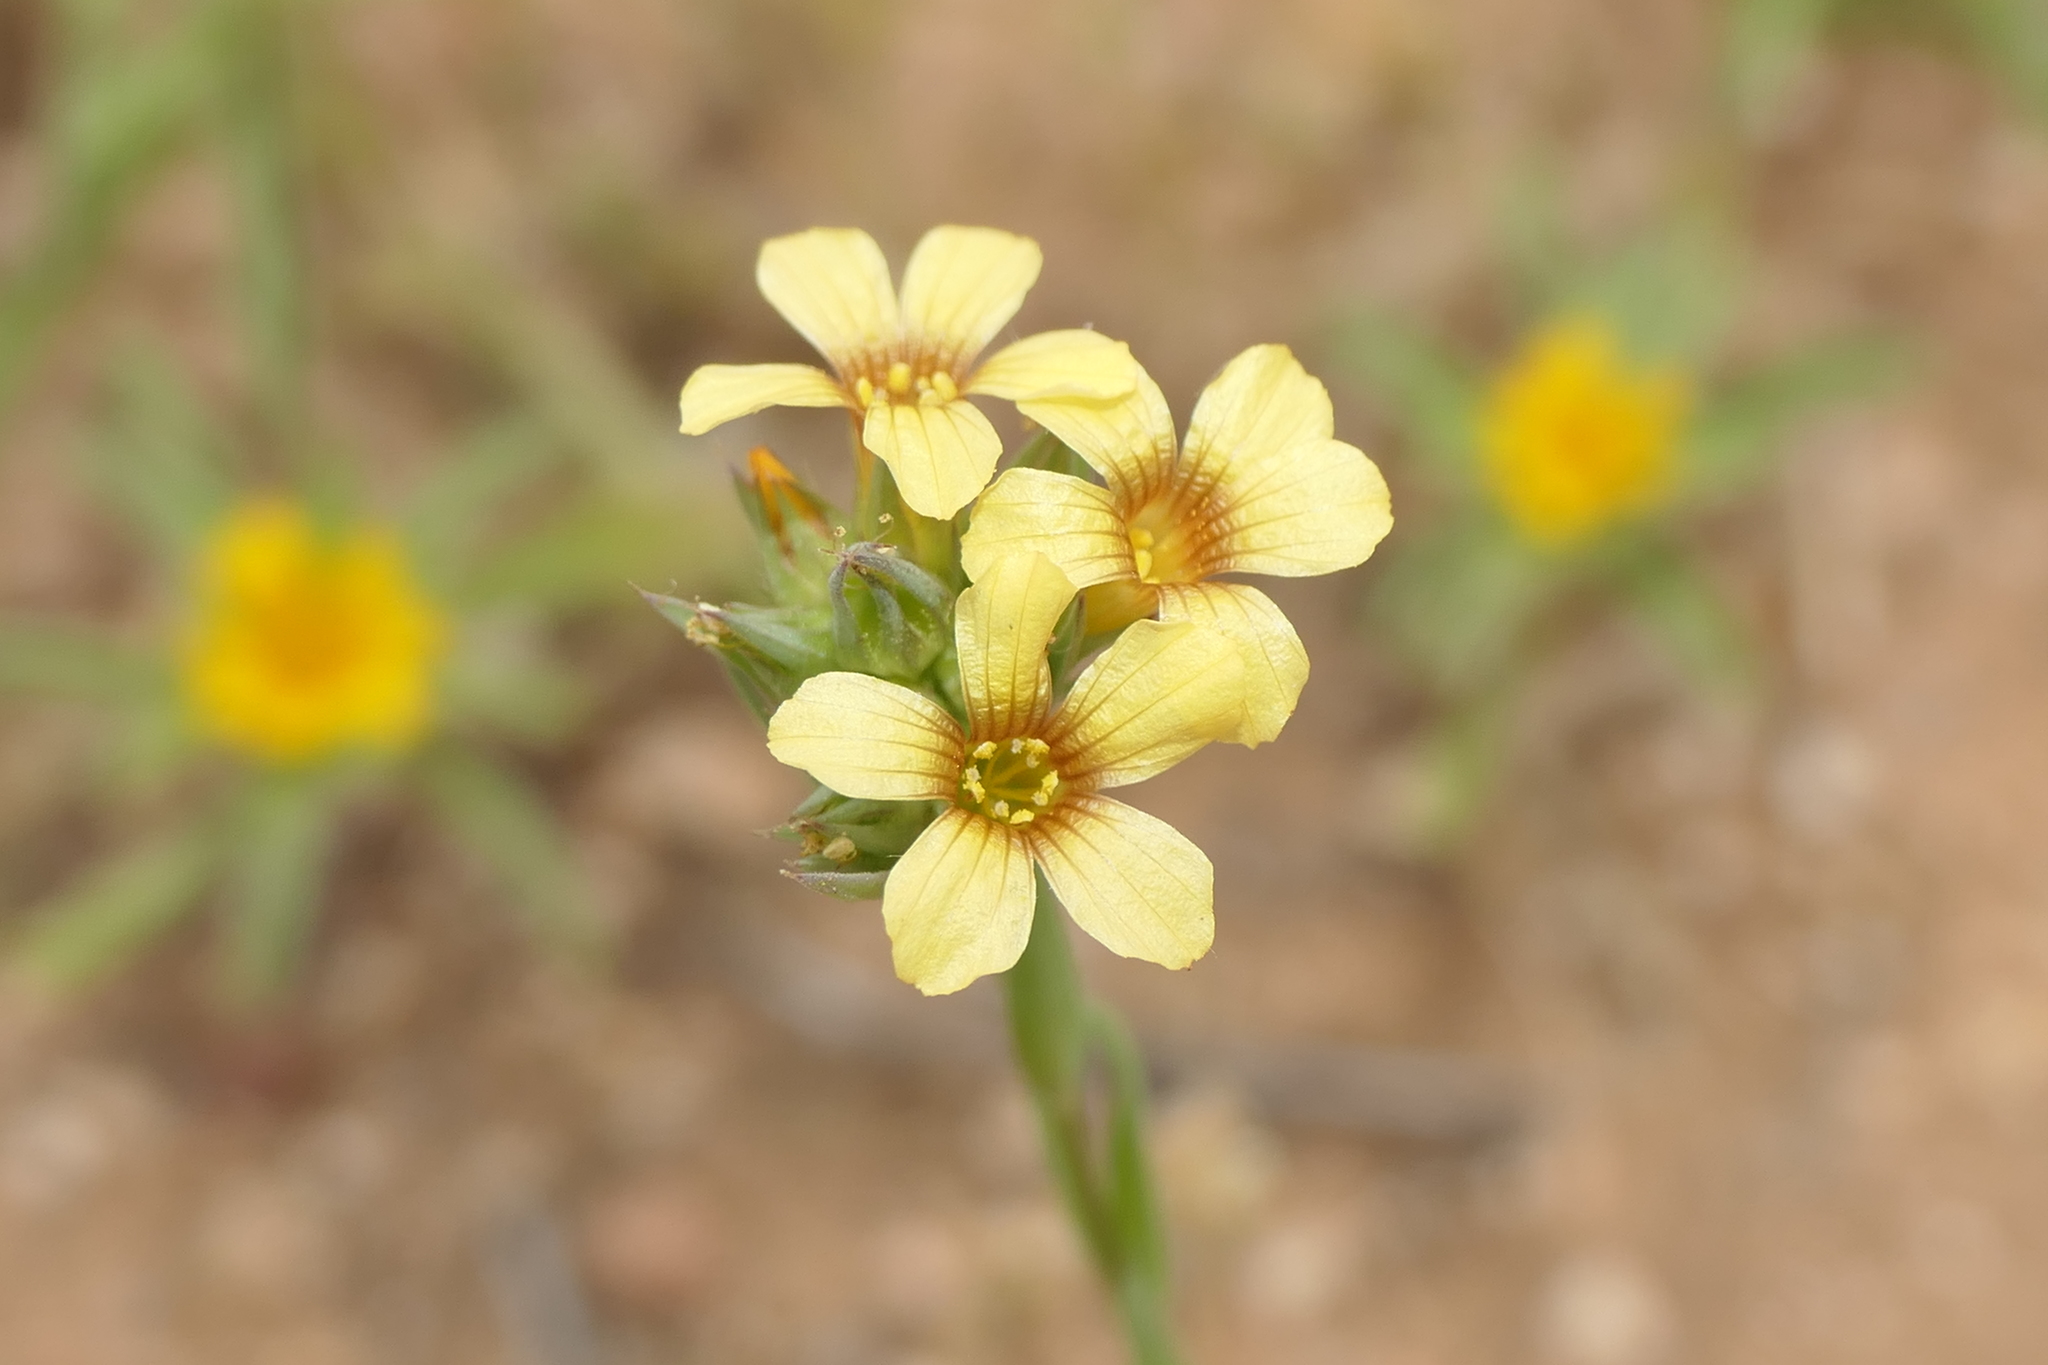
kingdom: Plantae
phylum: Tracheophyta
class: Magnoliopsida
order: Malpighiales
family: Linaceae
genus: Linum
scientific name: Linum strictum
